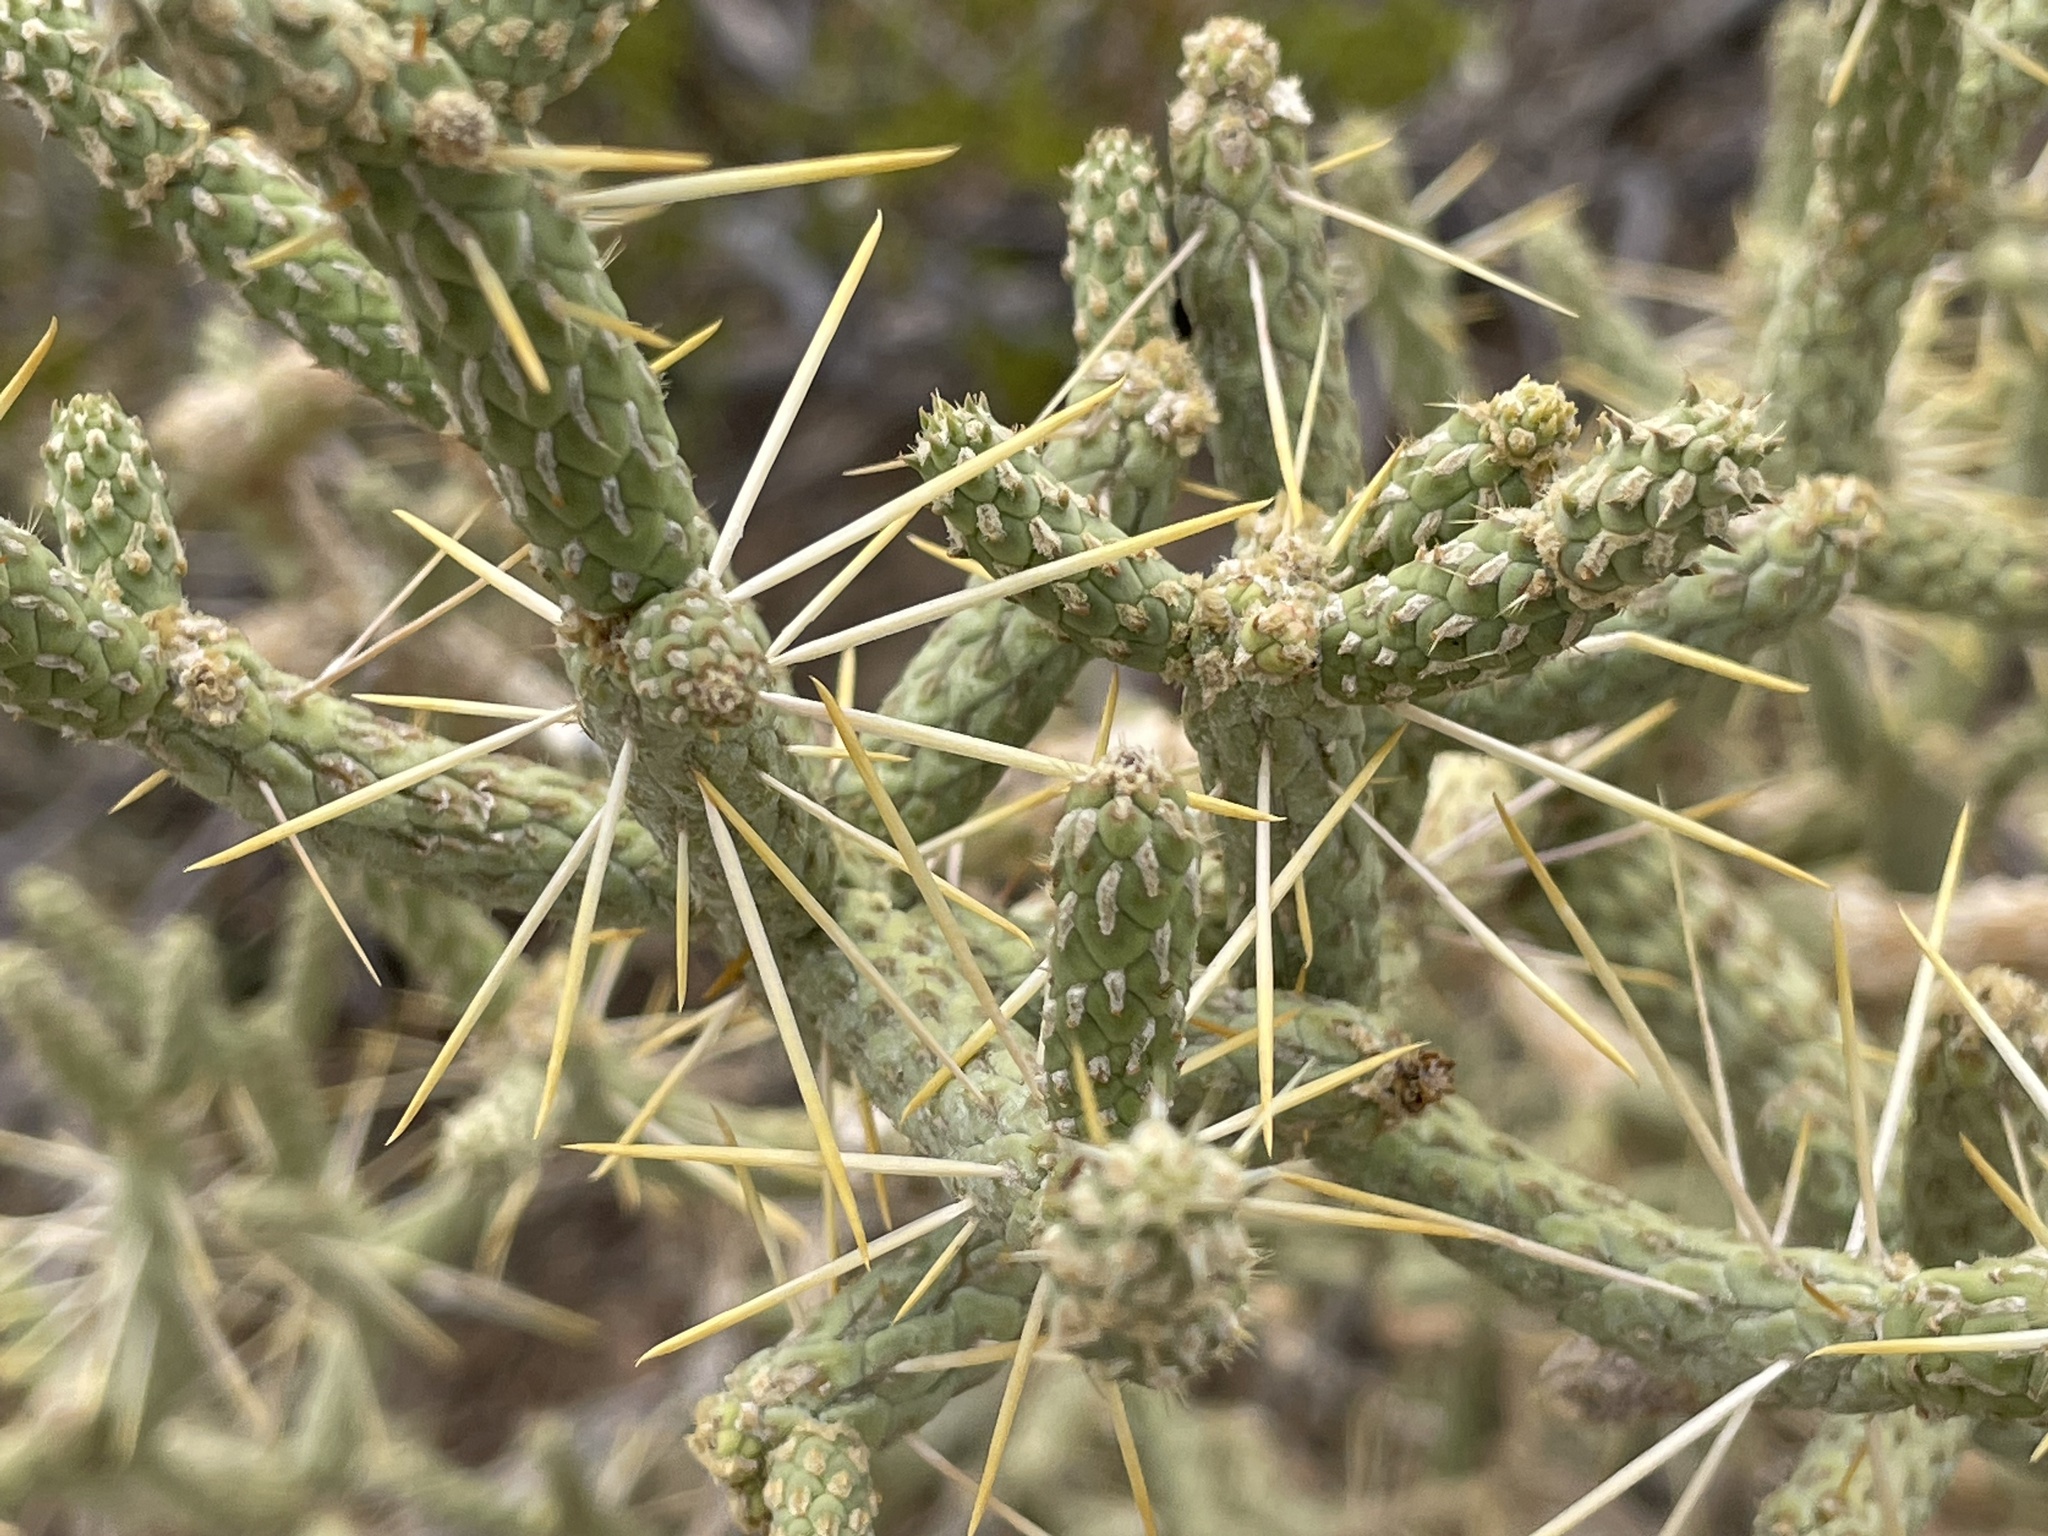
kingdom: Plantae
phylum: Tracheophyta
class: Magnoliopsida
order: Caryophyllales
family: Cactaceae
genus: Cylindropuntia
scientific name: Cylindropuntia ramosissima
